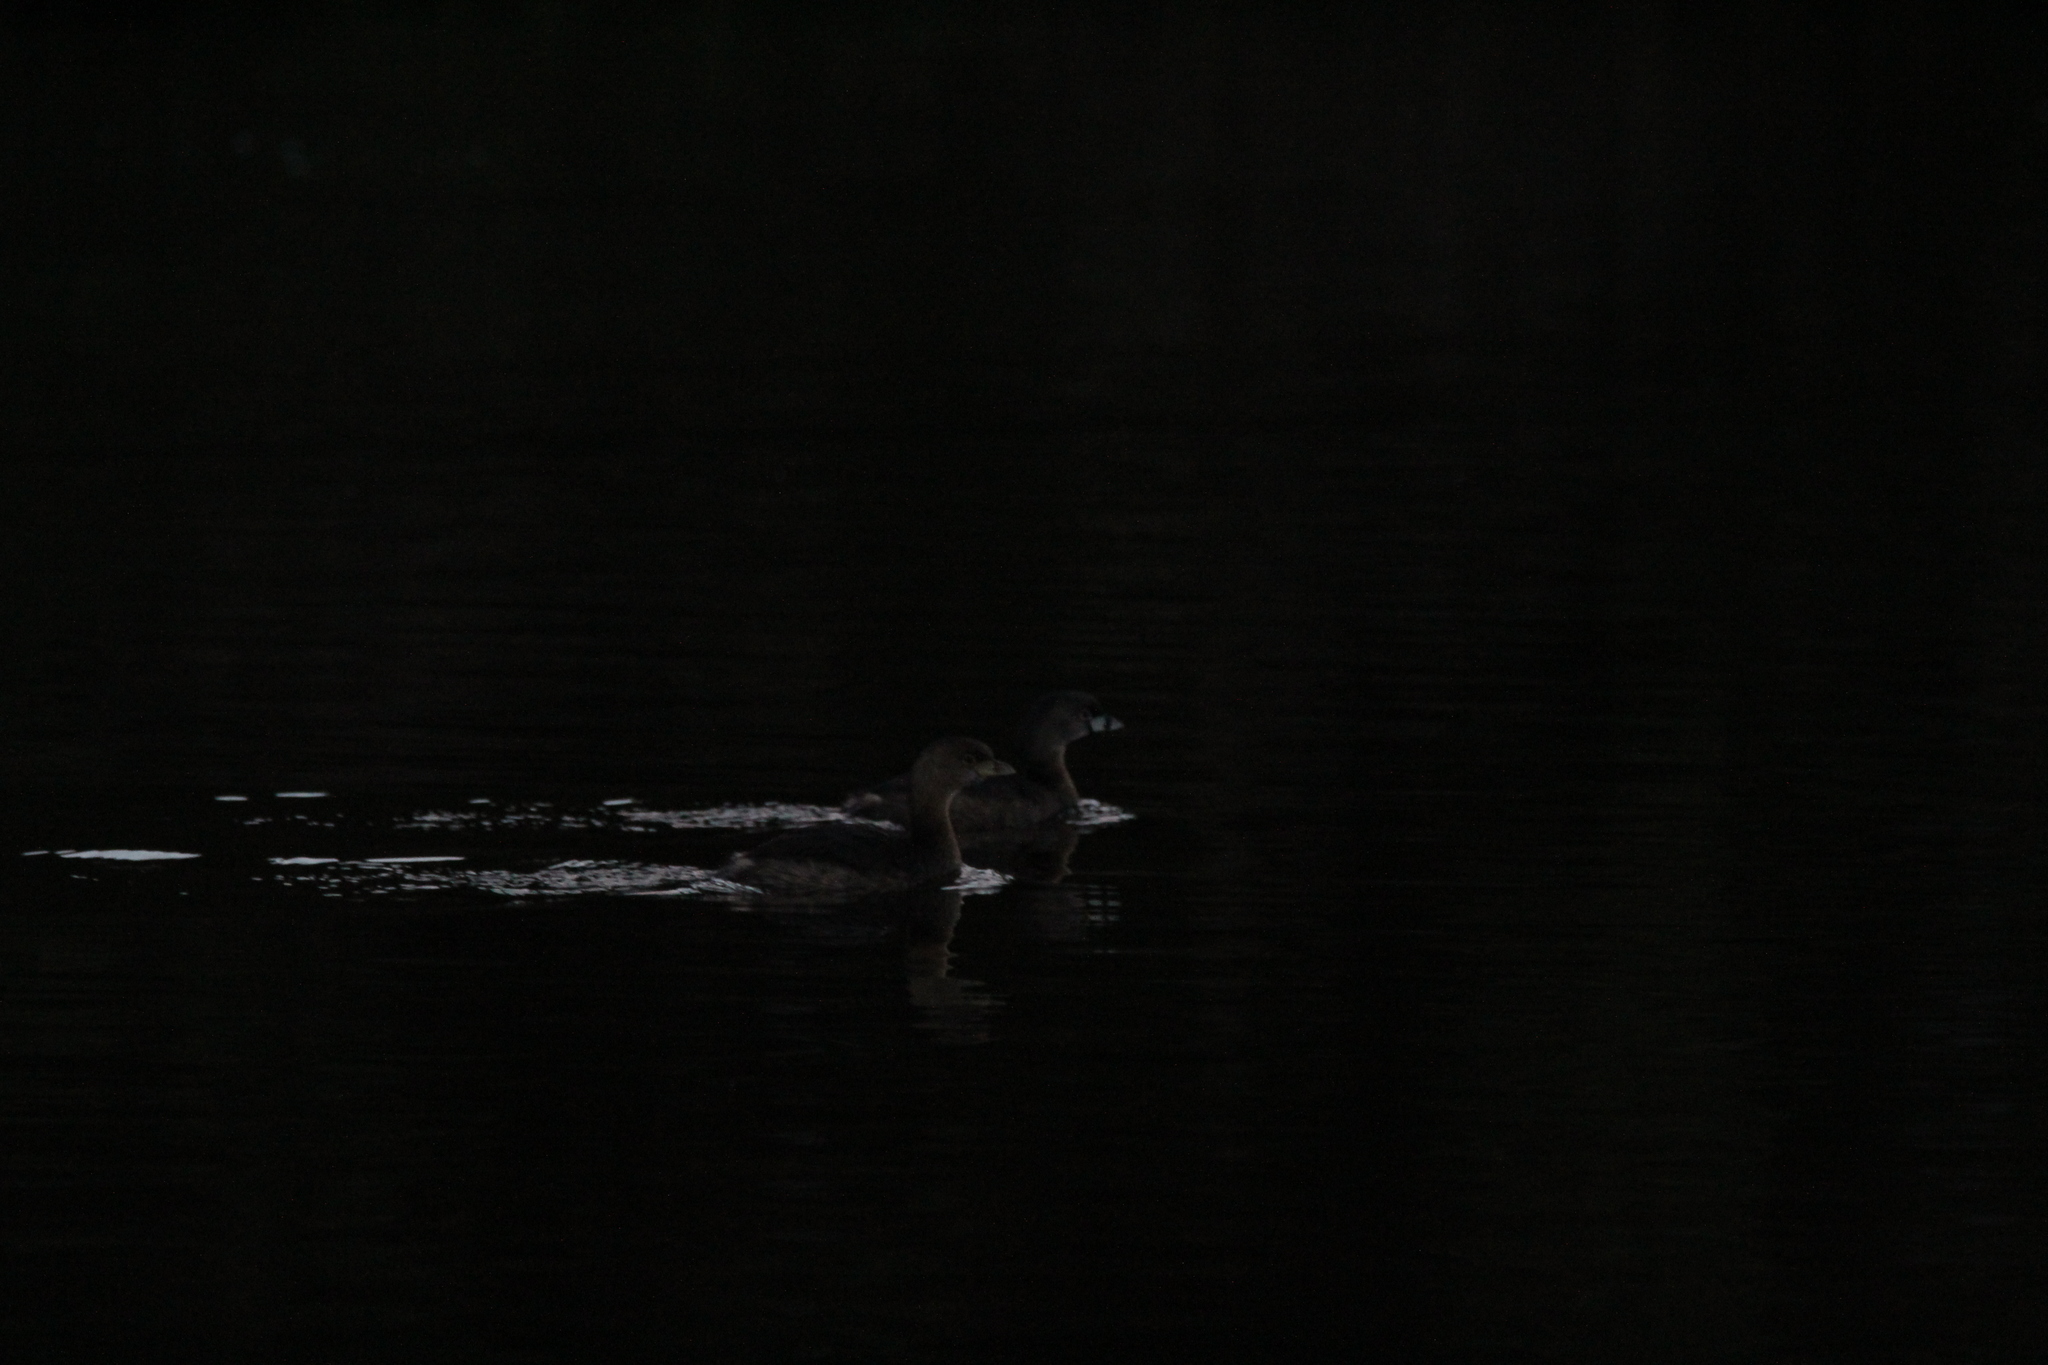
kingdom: Animalia
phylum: Chordata
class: Aves
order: Podicipediformes
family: Podicipedidae
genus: Podilymbus
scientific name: Podilymbus podiceps
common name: Pied-billed grebe
